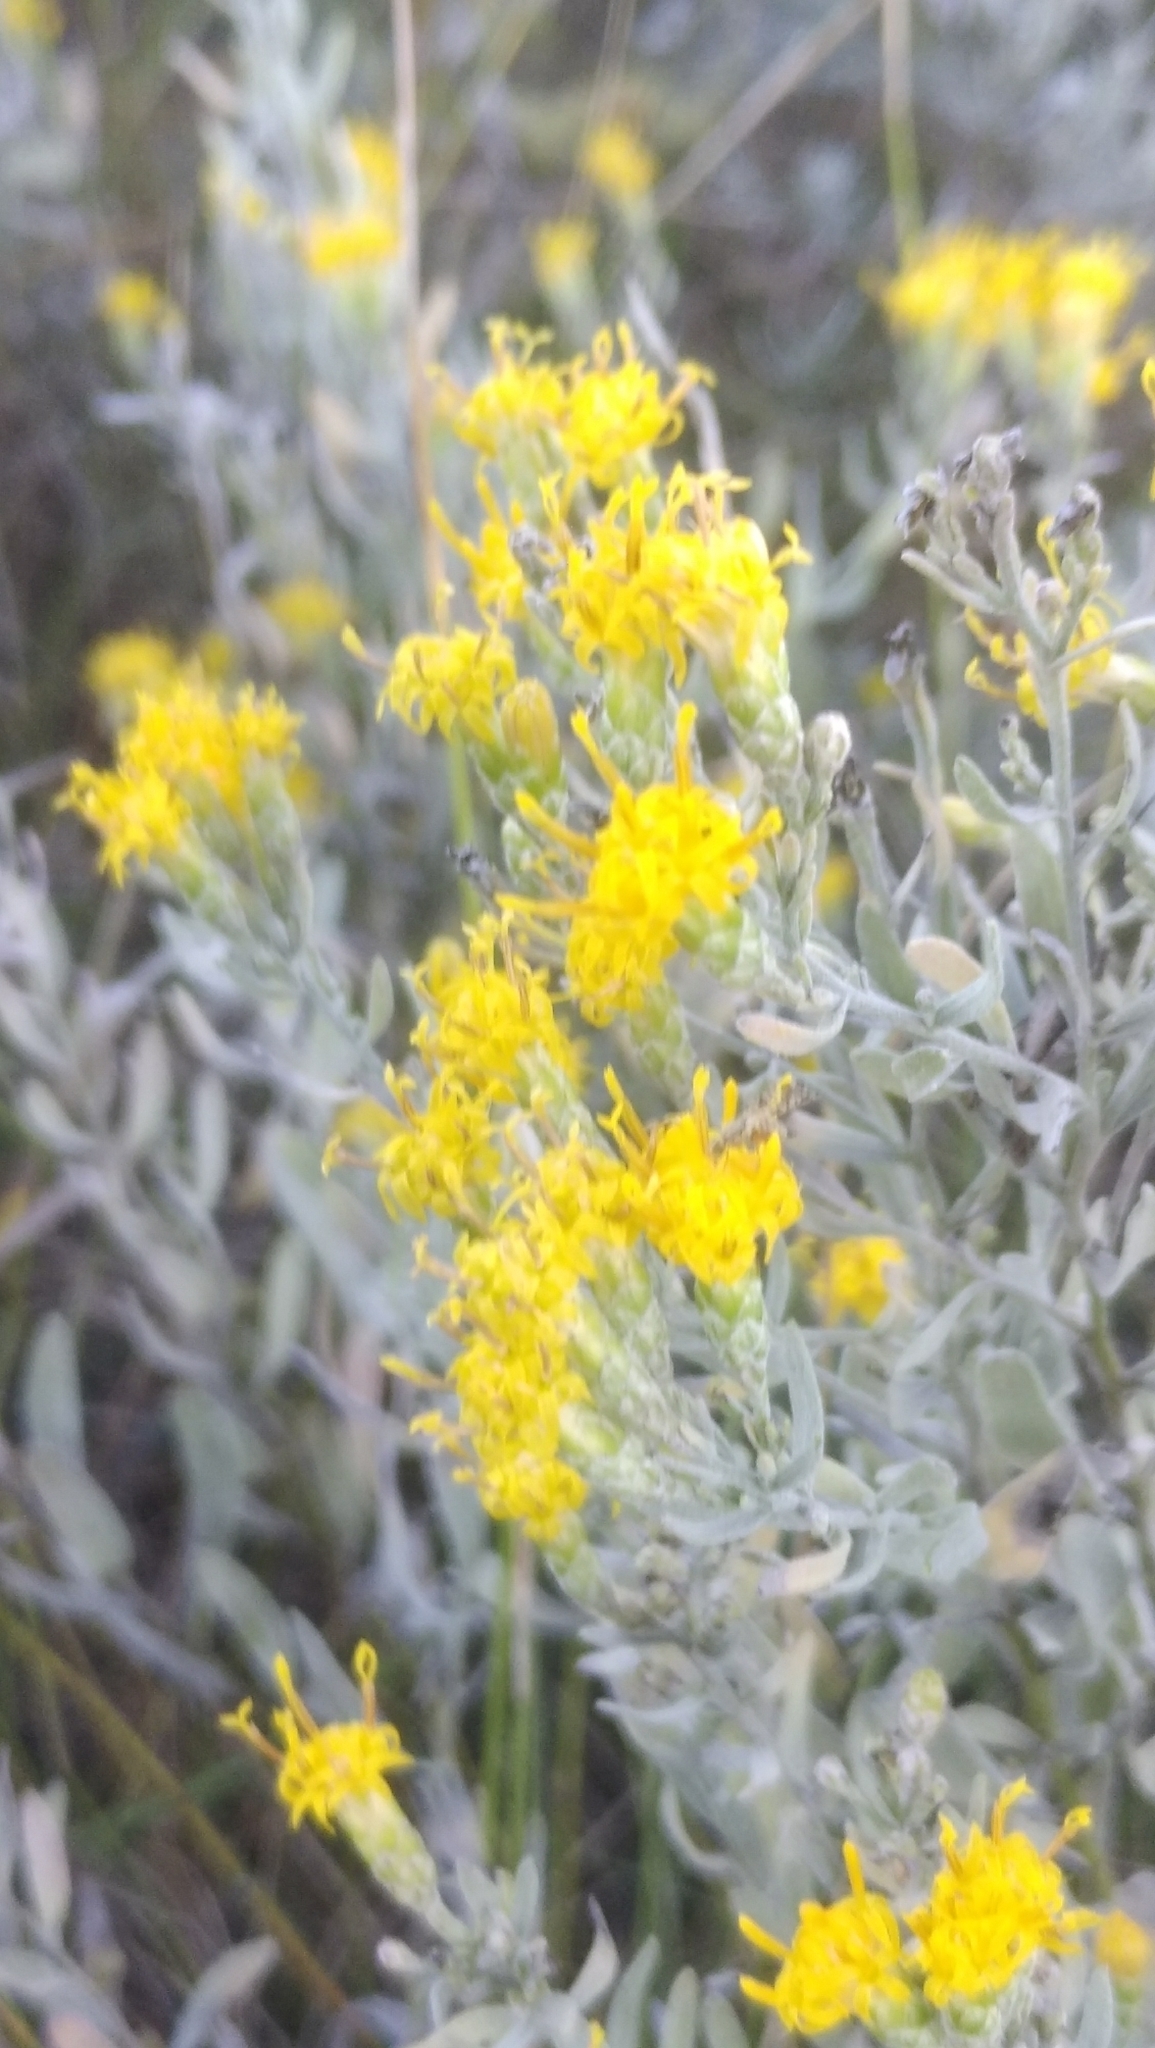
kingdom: Plantae
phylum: Tracheophyta
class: Magnoliopsida
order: Asterales
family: Asteraceae
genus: Galatella
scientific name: Galatella villosa
